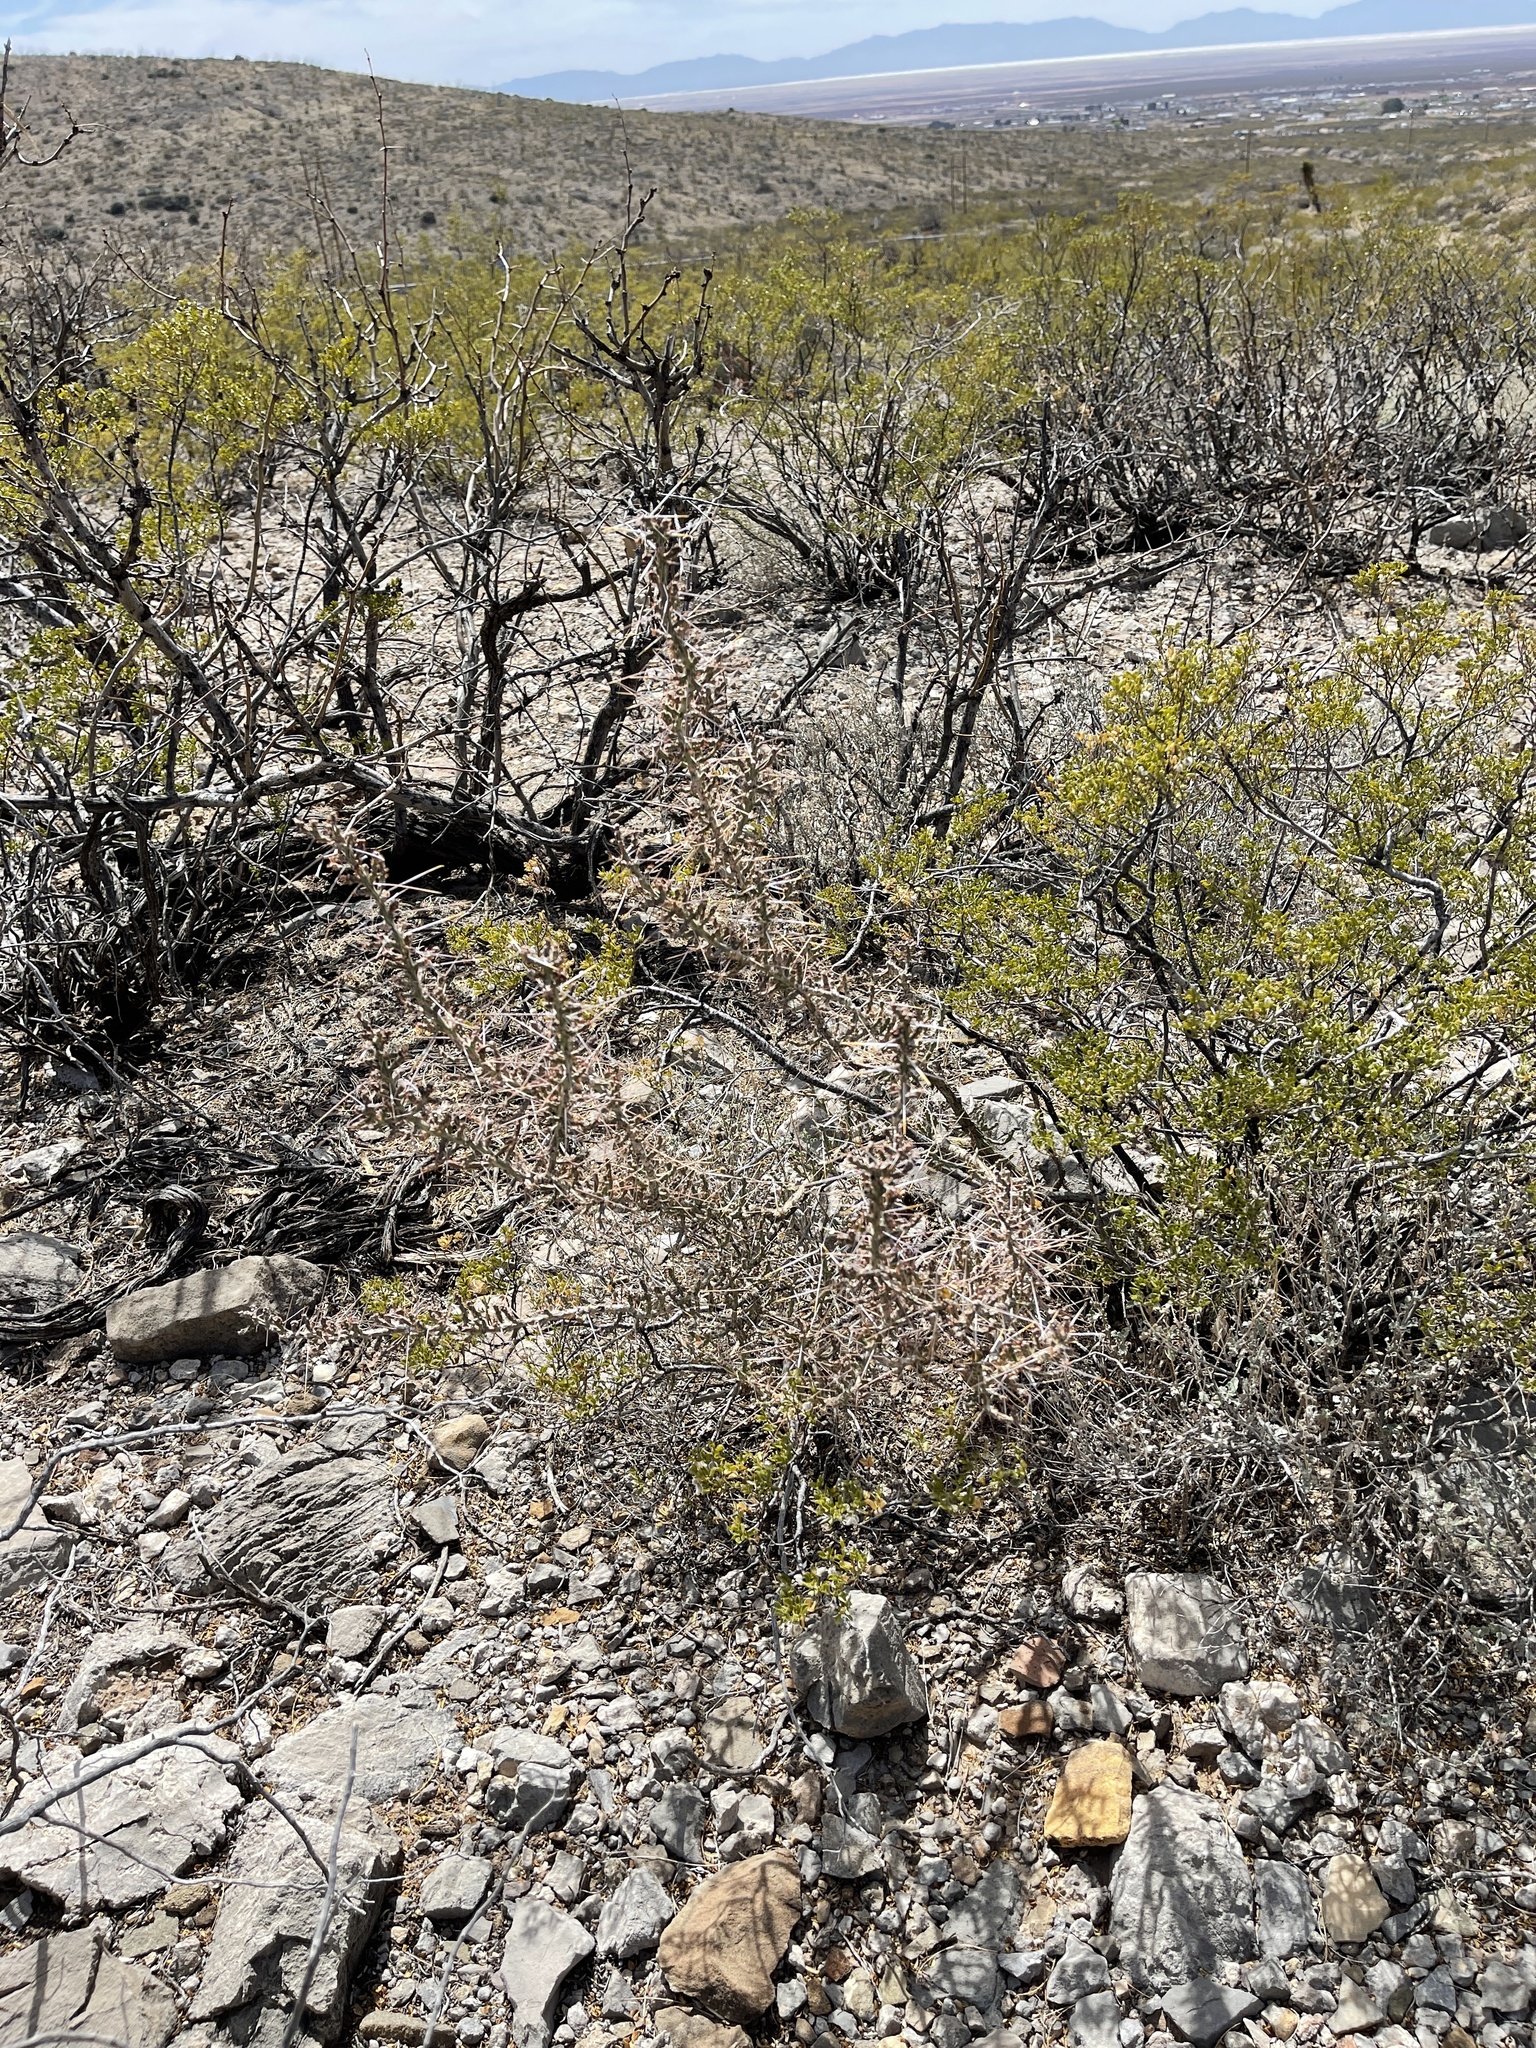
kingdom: Plantae
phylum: Tracheophyta
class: Magnoliopsida
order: Caryophyllales
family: Cactaceae
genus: Cylindropuntia
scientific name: Cylindropuntia leptocaulis
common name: Christmas cactus
